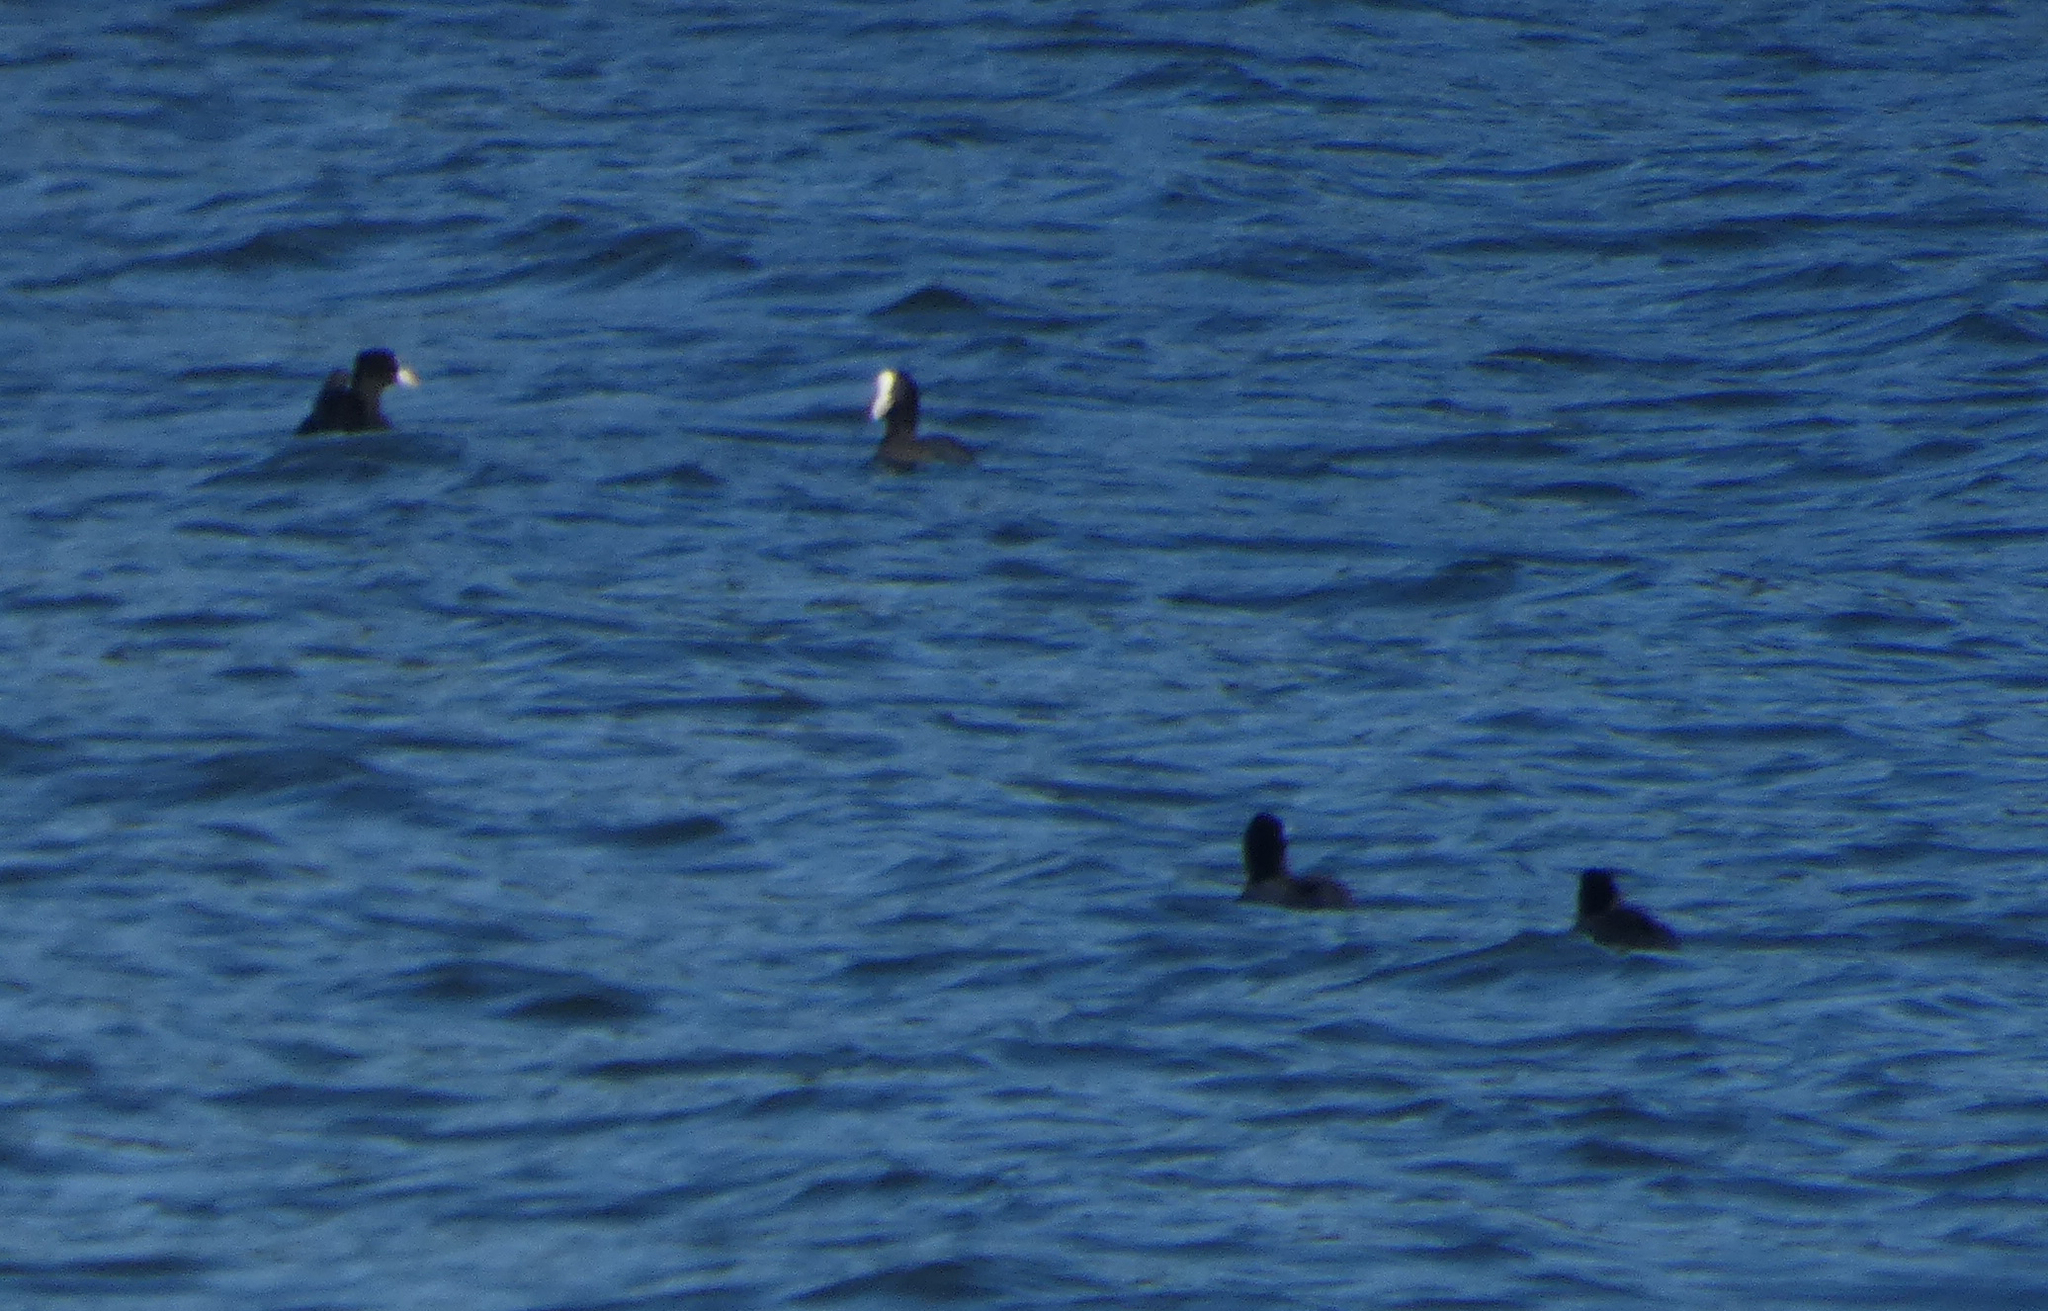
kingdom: Animalia
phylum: Chordata
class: Aves
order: Gruiformes
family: Rallidae
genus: Fulica
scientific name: Fulica atra
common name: Eurasian coot
